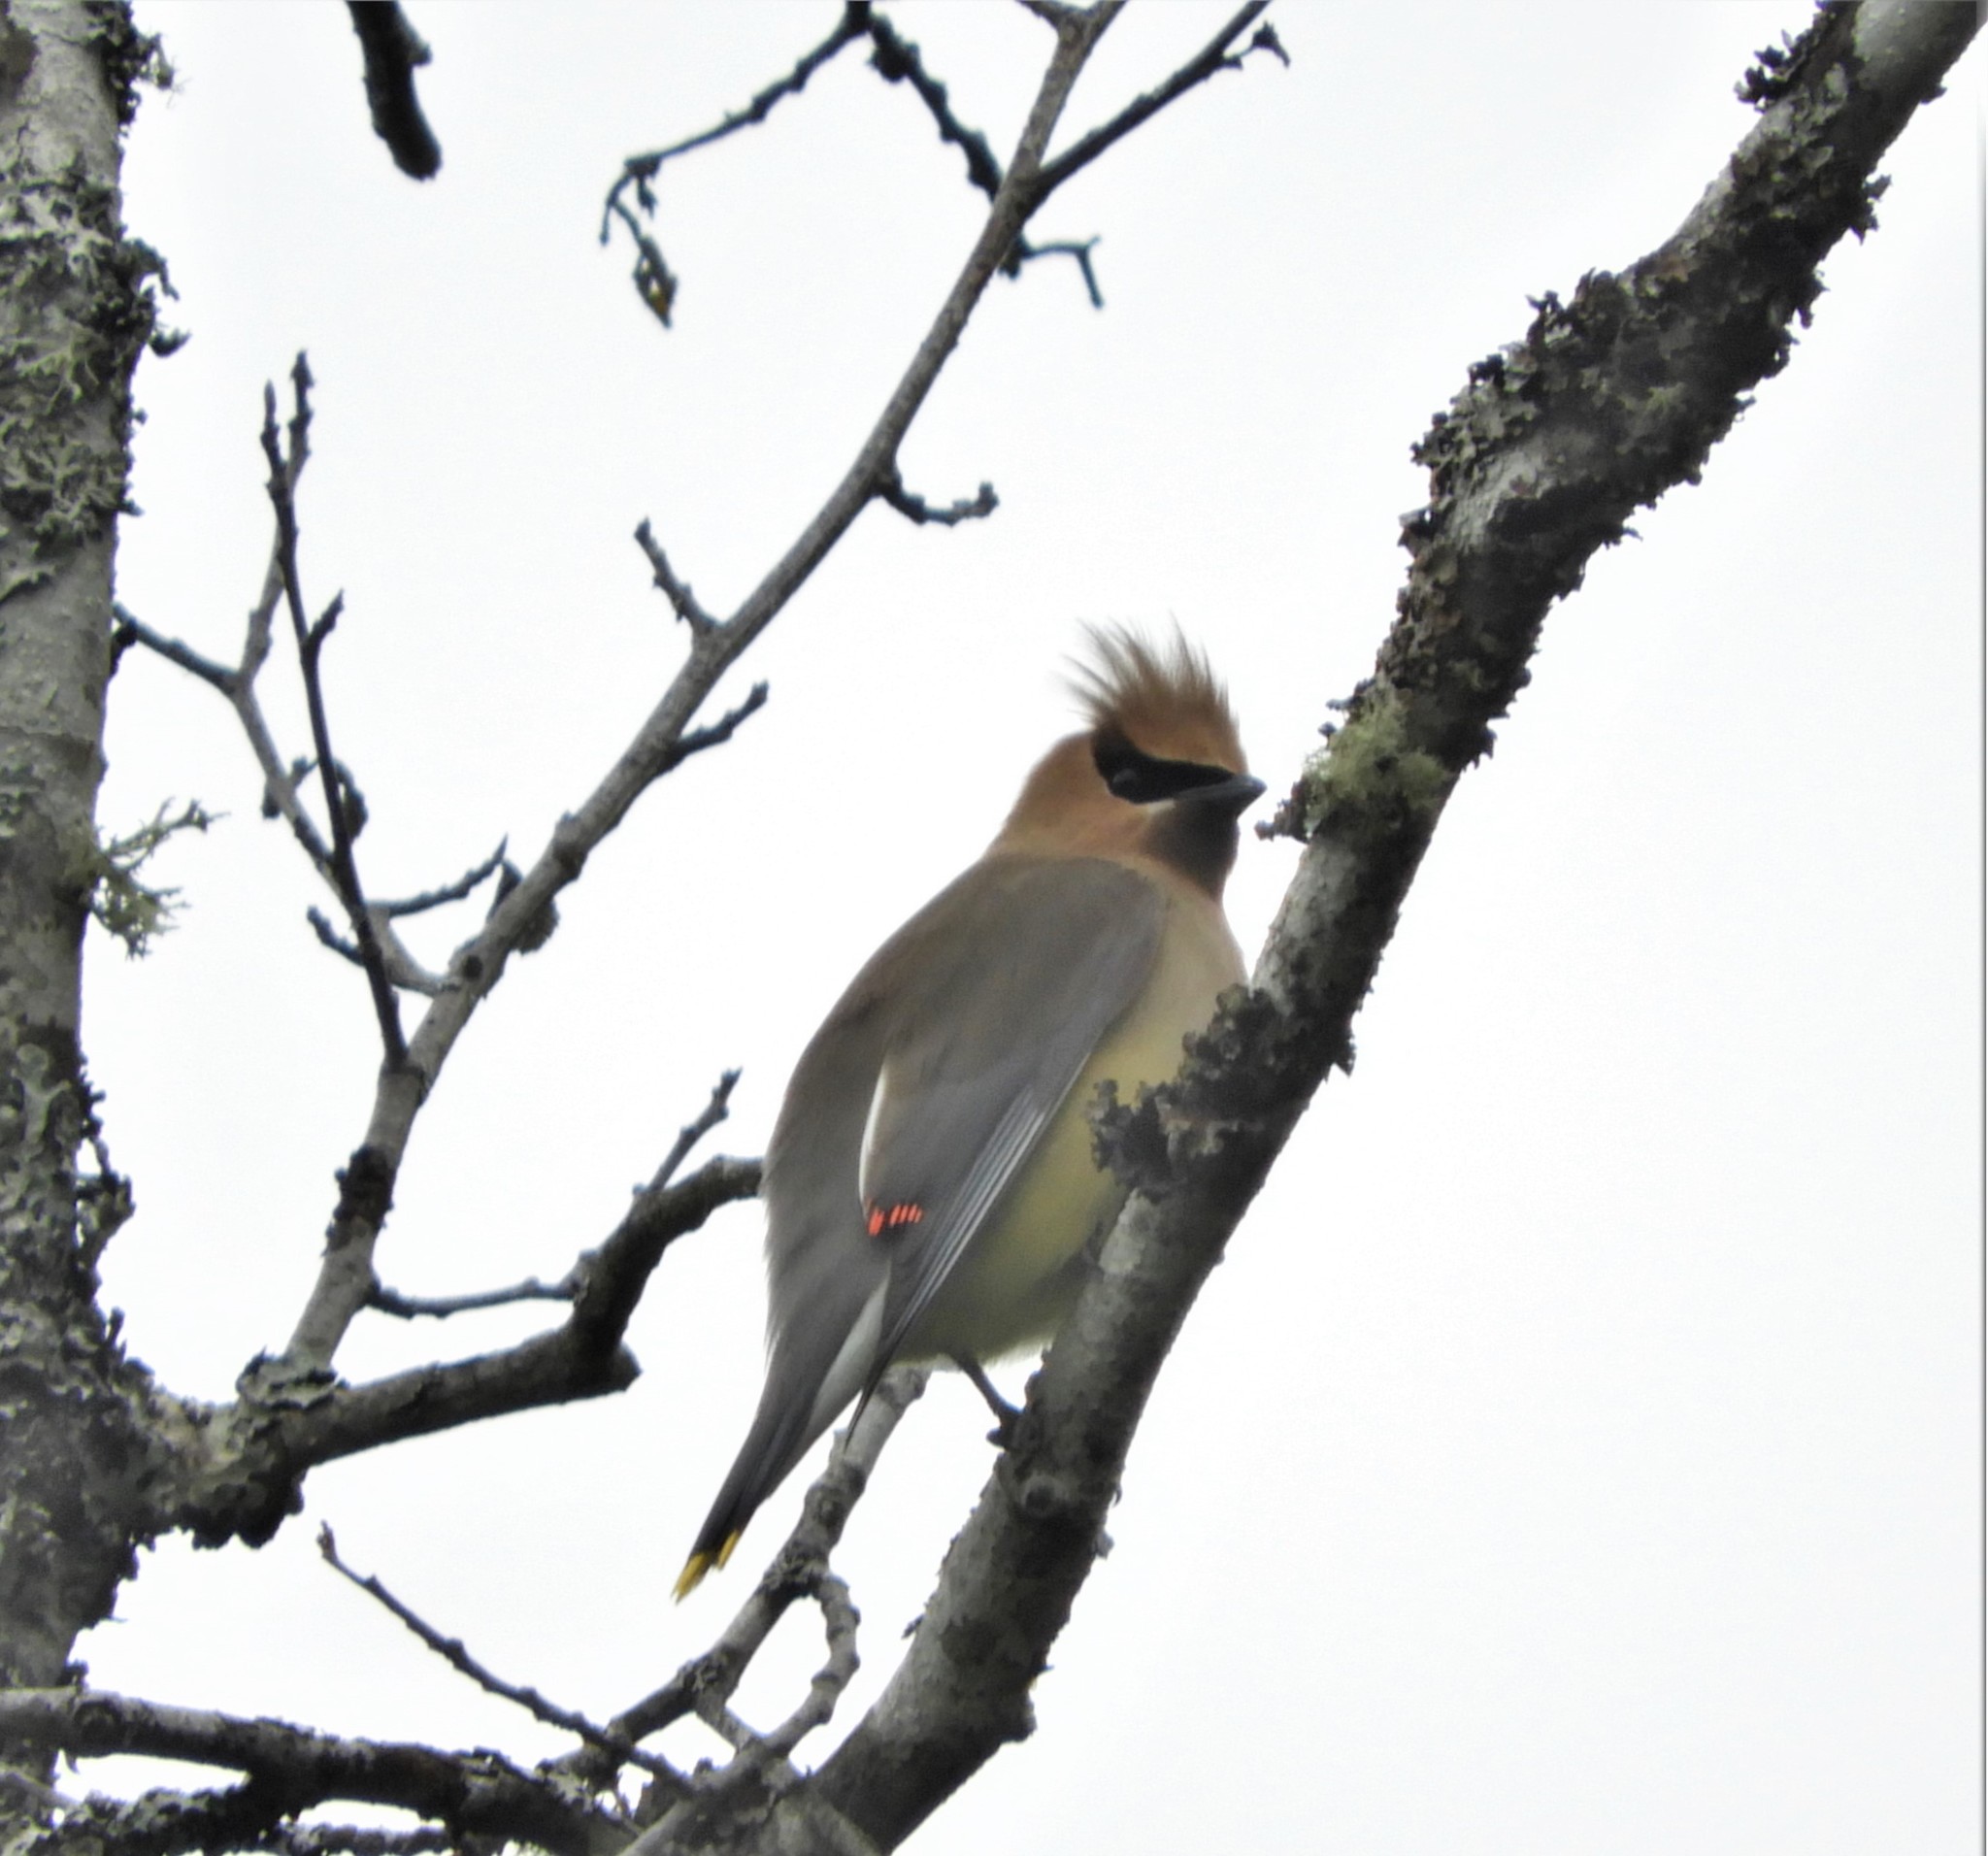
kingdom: Animalia
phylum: Chordata
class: Aves
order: Passeriformes
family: Bombycillidae
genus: Bombycilla
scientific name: Bombycilla cedrorum
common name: Cedar waxwing
